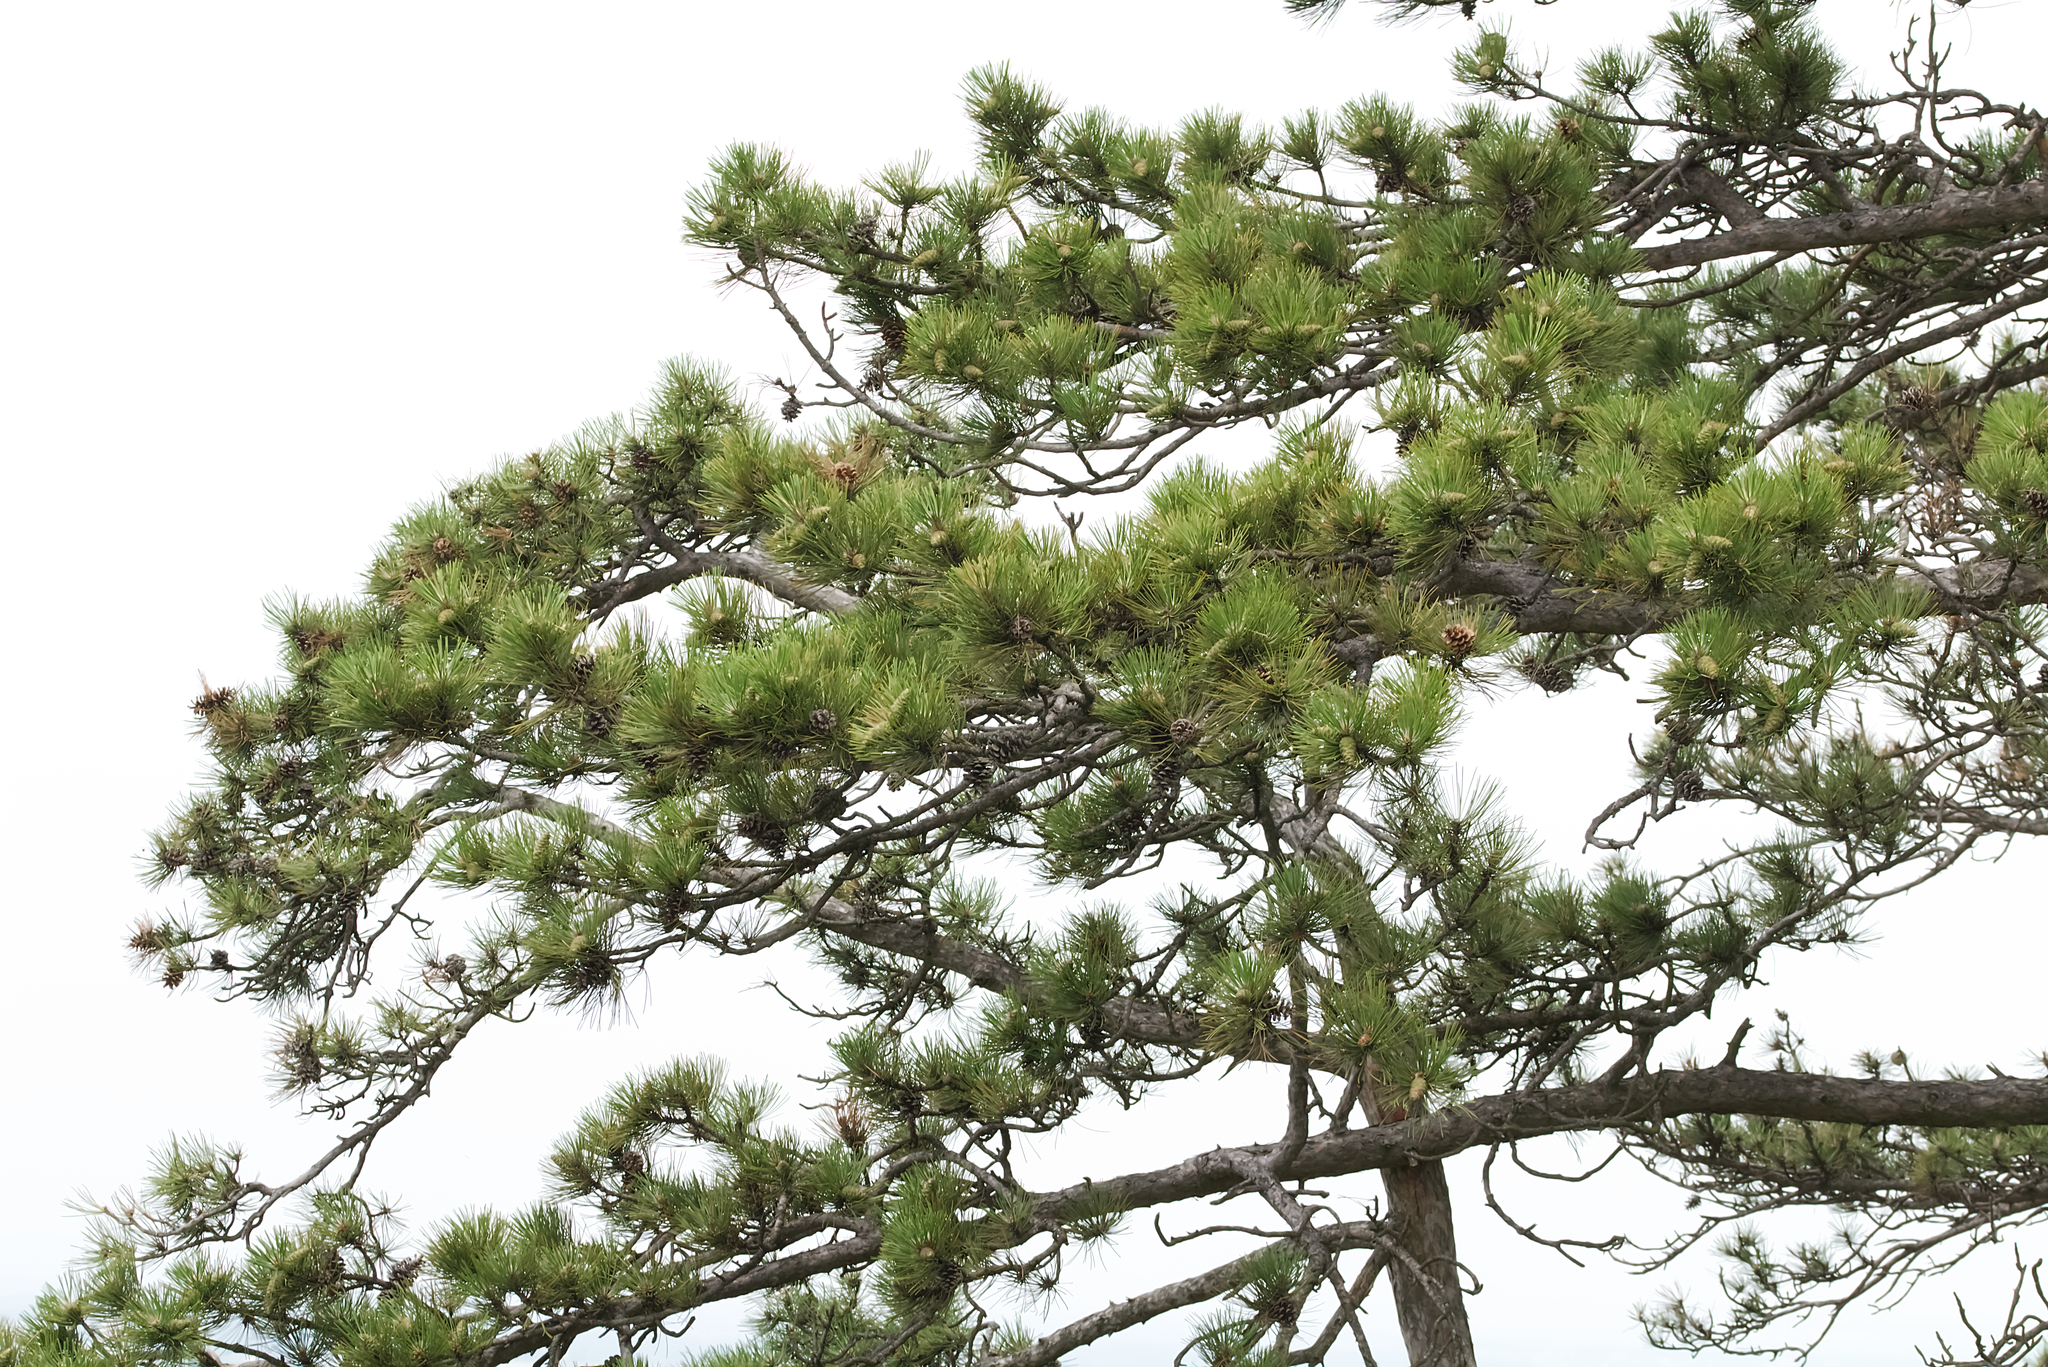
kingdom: Plantae
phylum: Tracheophyta
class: Pinopsida
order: Pinales
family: Pinaceae
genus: Pinus
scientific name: Pinus nigra
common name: Austrian pine
